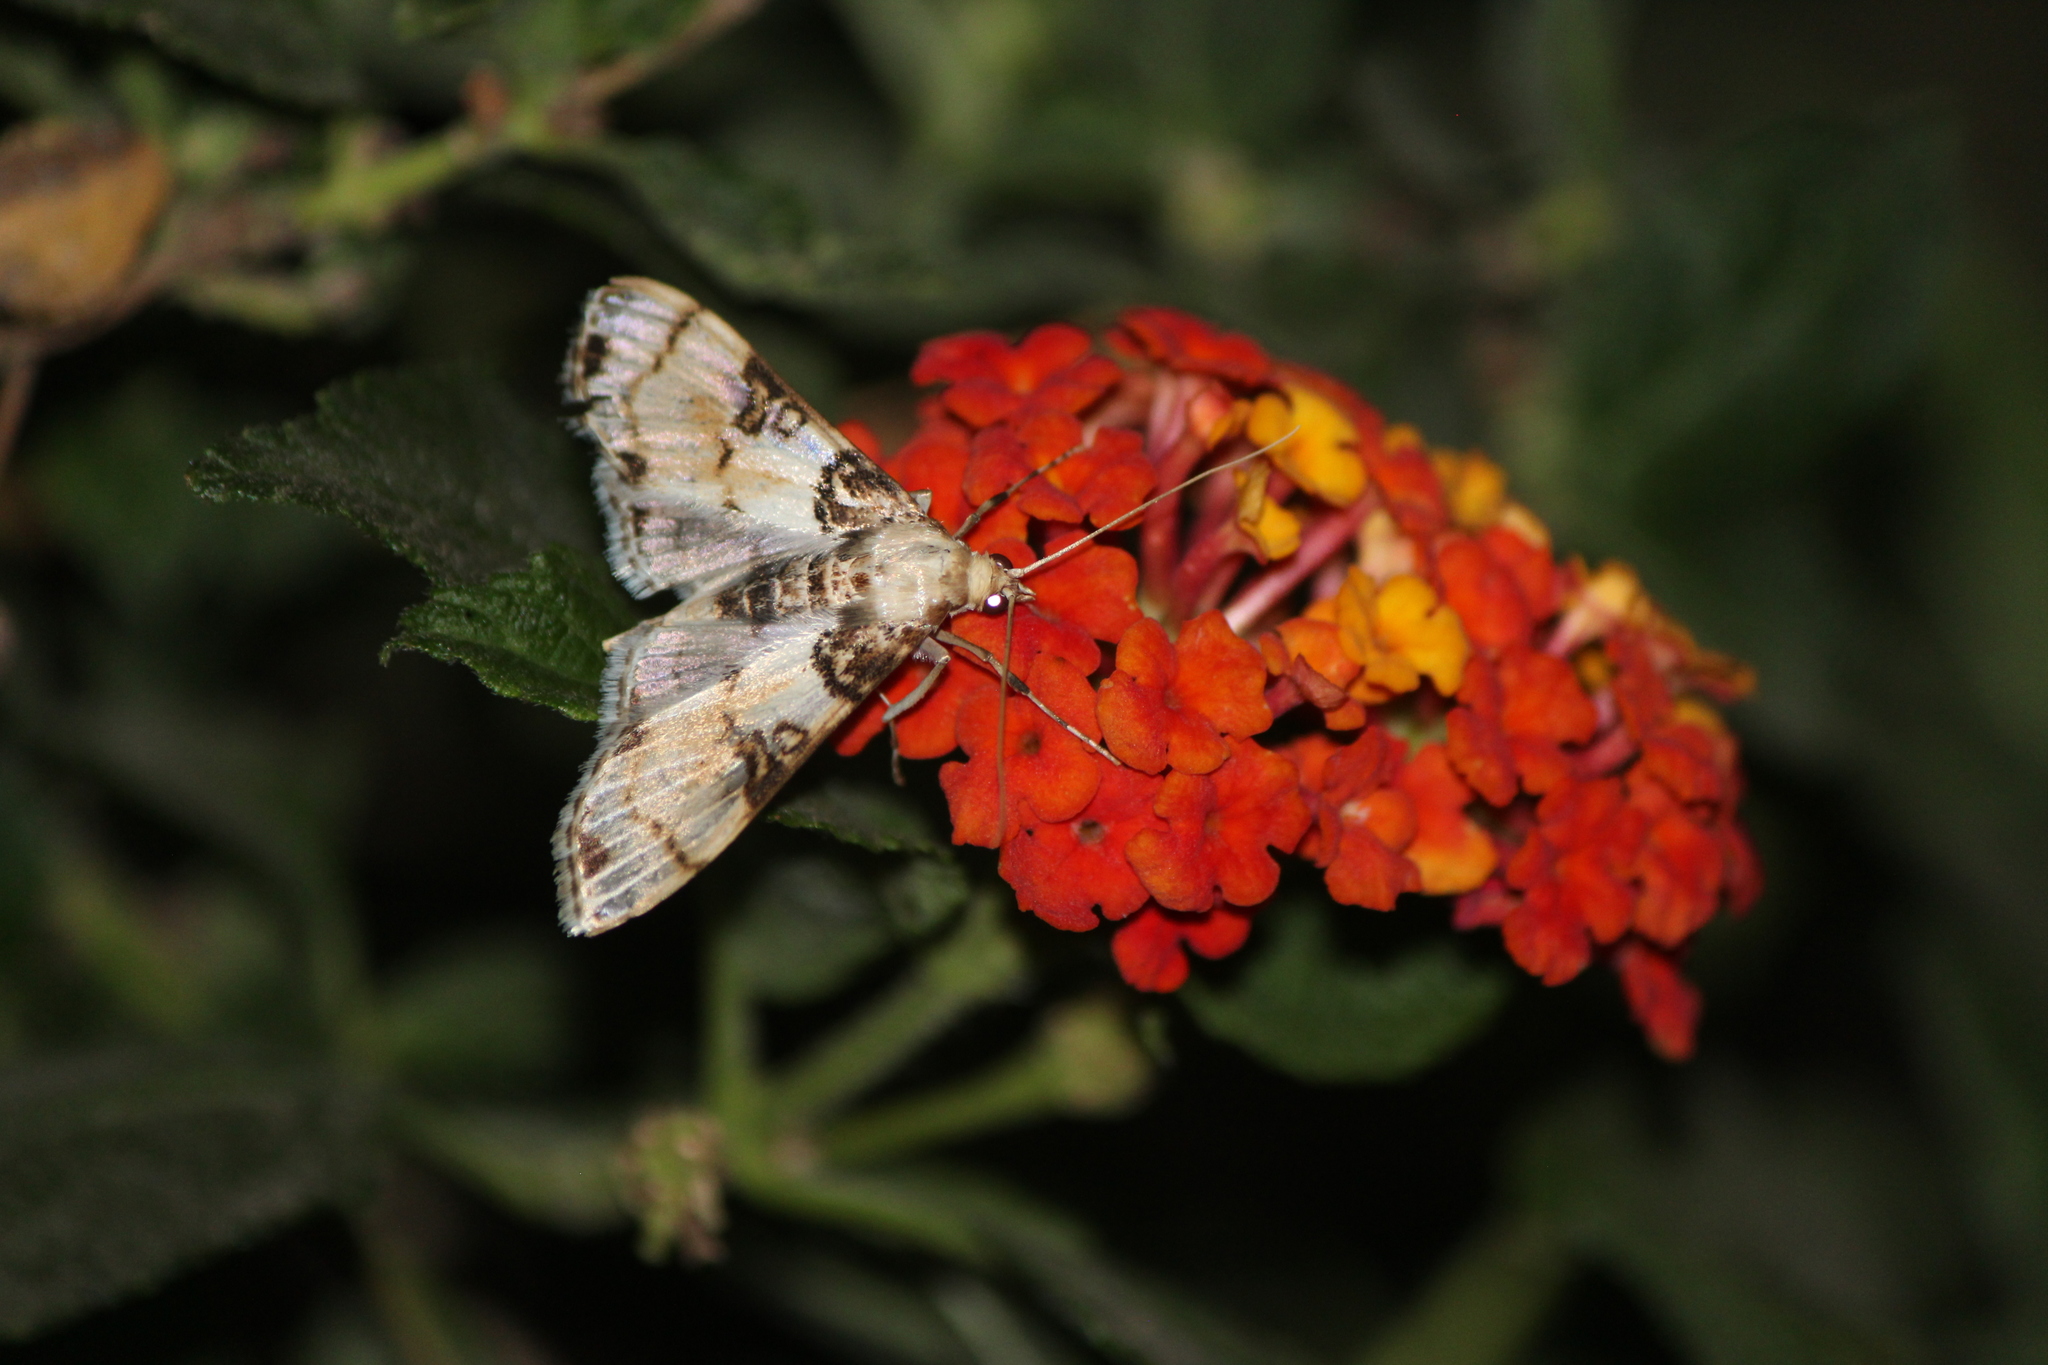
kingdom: Animalia
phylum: Arthropoda
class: Insecta
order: Lepidoptera
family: Crambidae
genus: Azochis
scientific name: Azochis rufidiscalis
